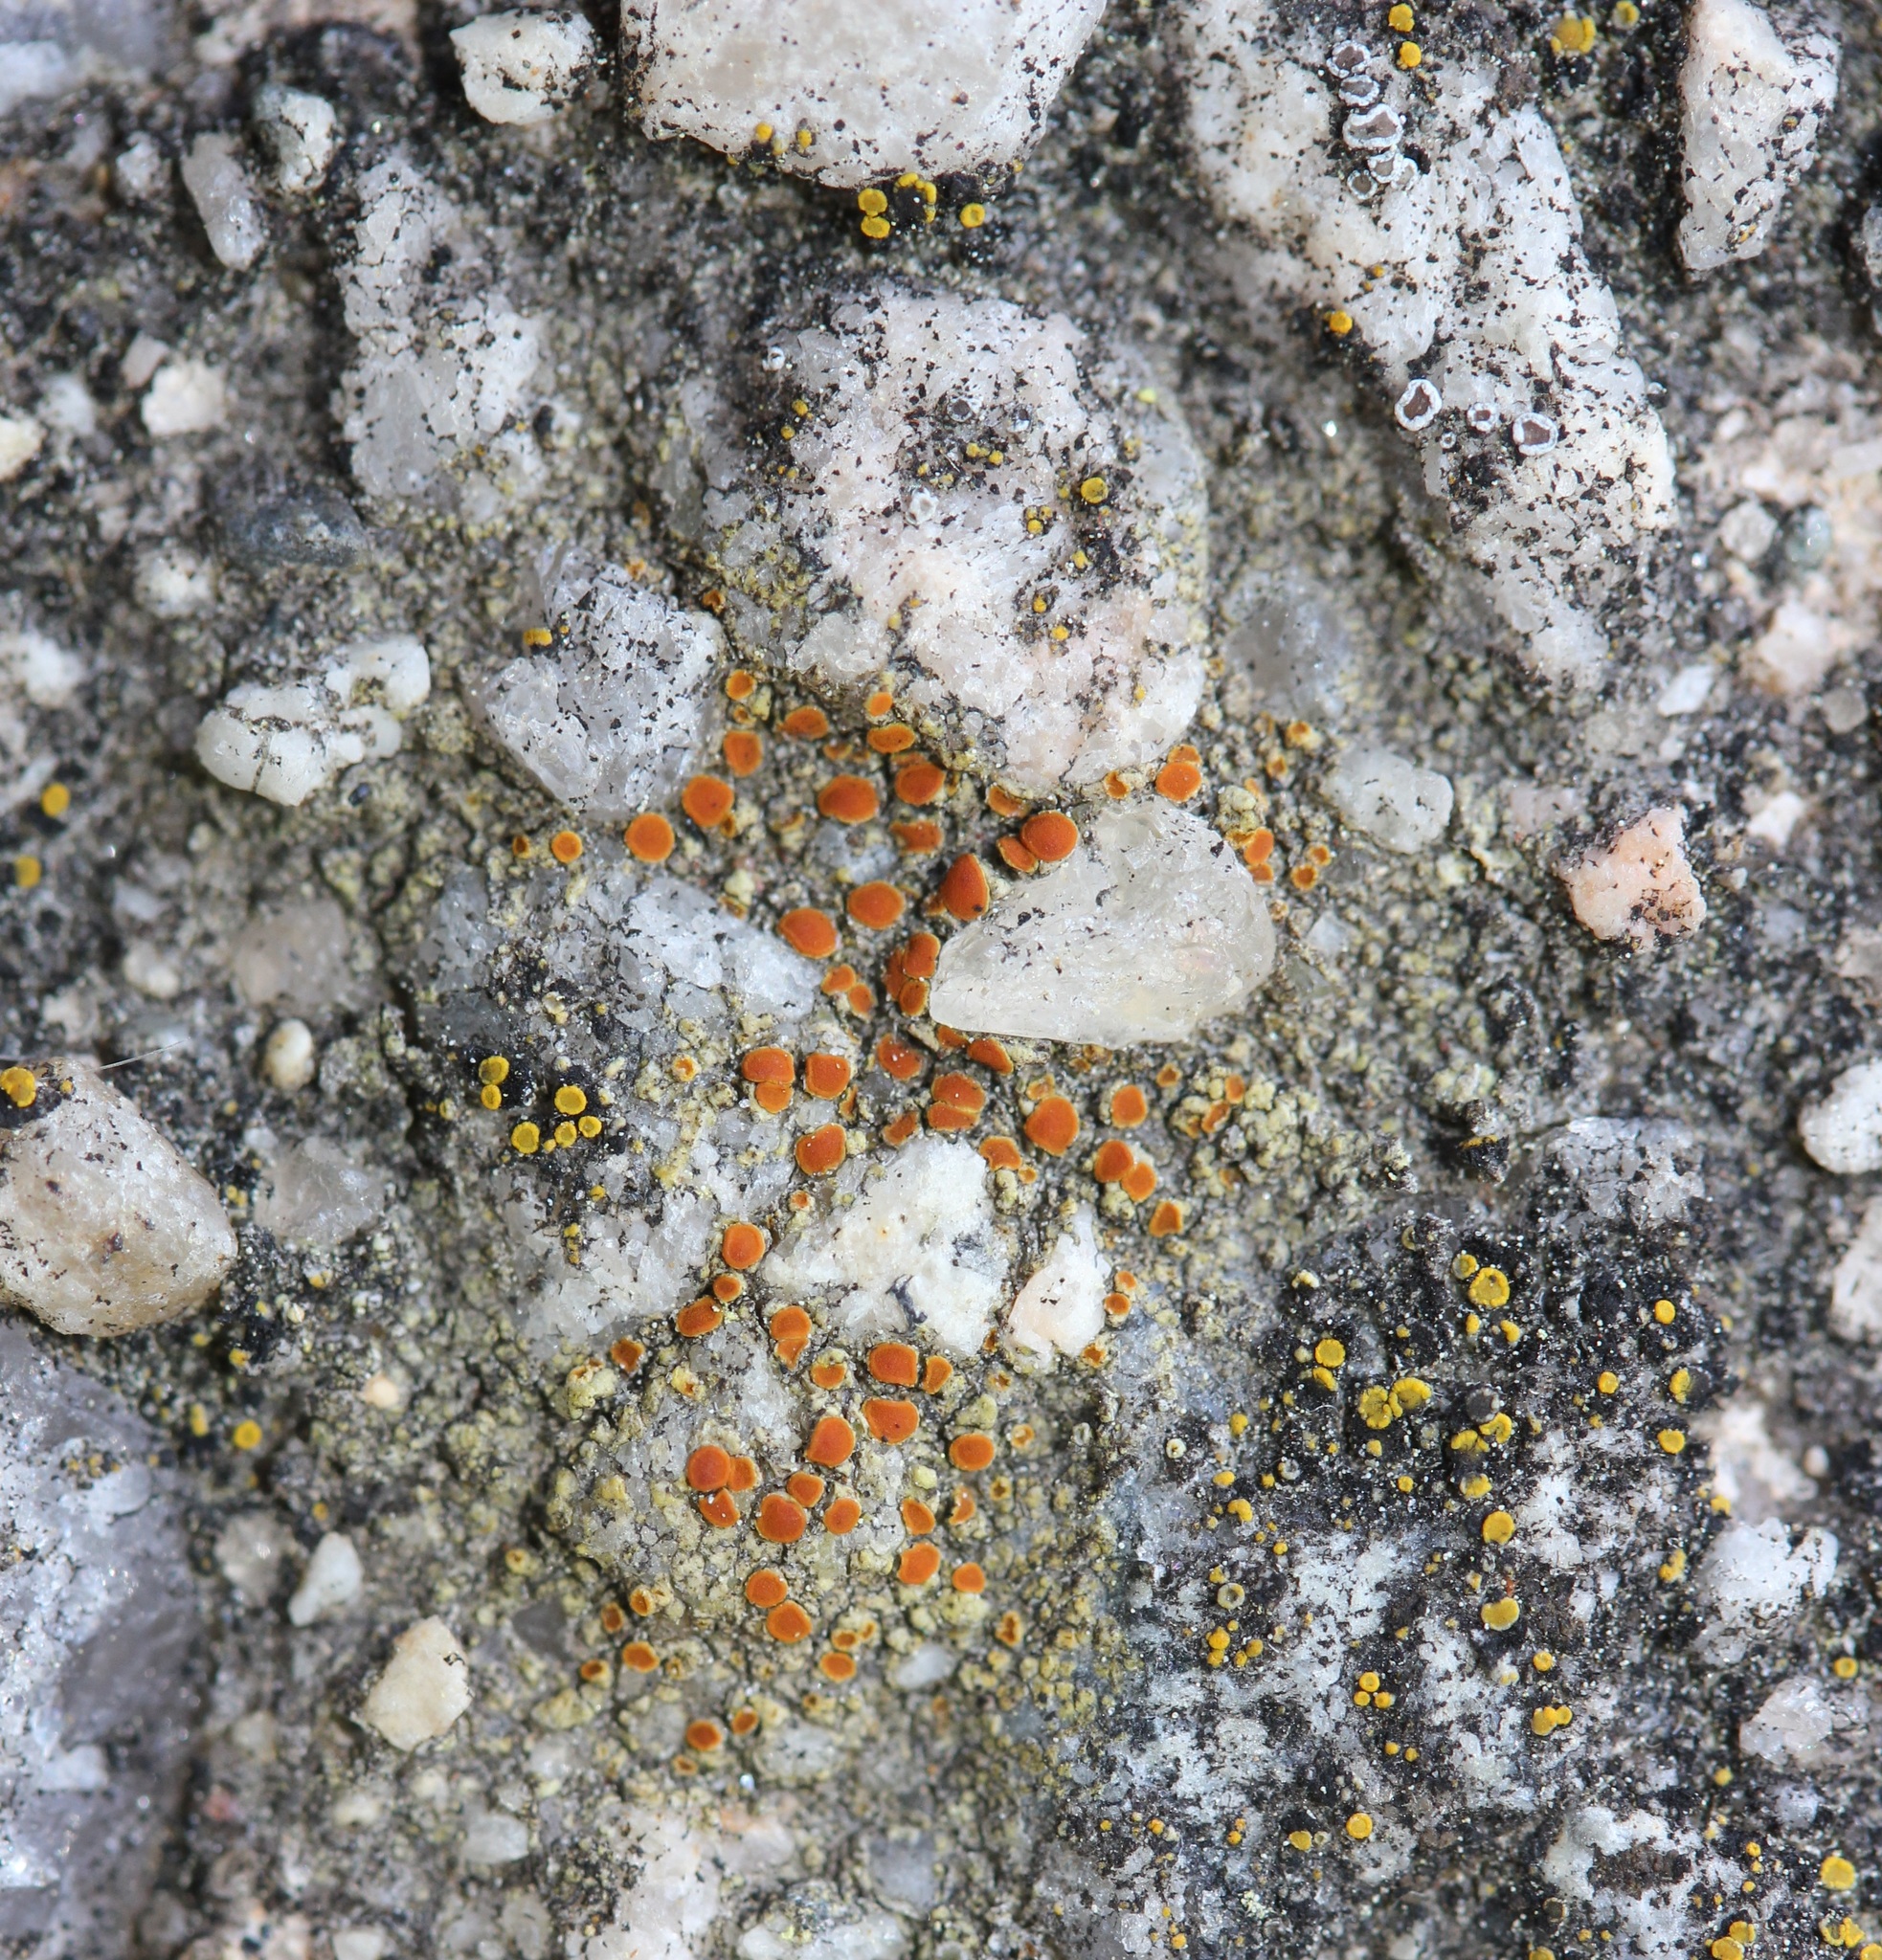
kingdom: Fungi
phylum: Ascomycota
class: Lecanoromycetes
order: Lecanorales
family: Lecanoraceae
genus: Polyozosia
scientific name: Polyozosia dispersa
